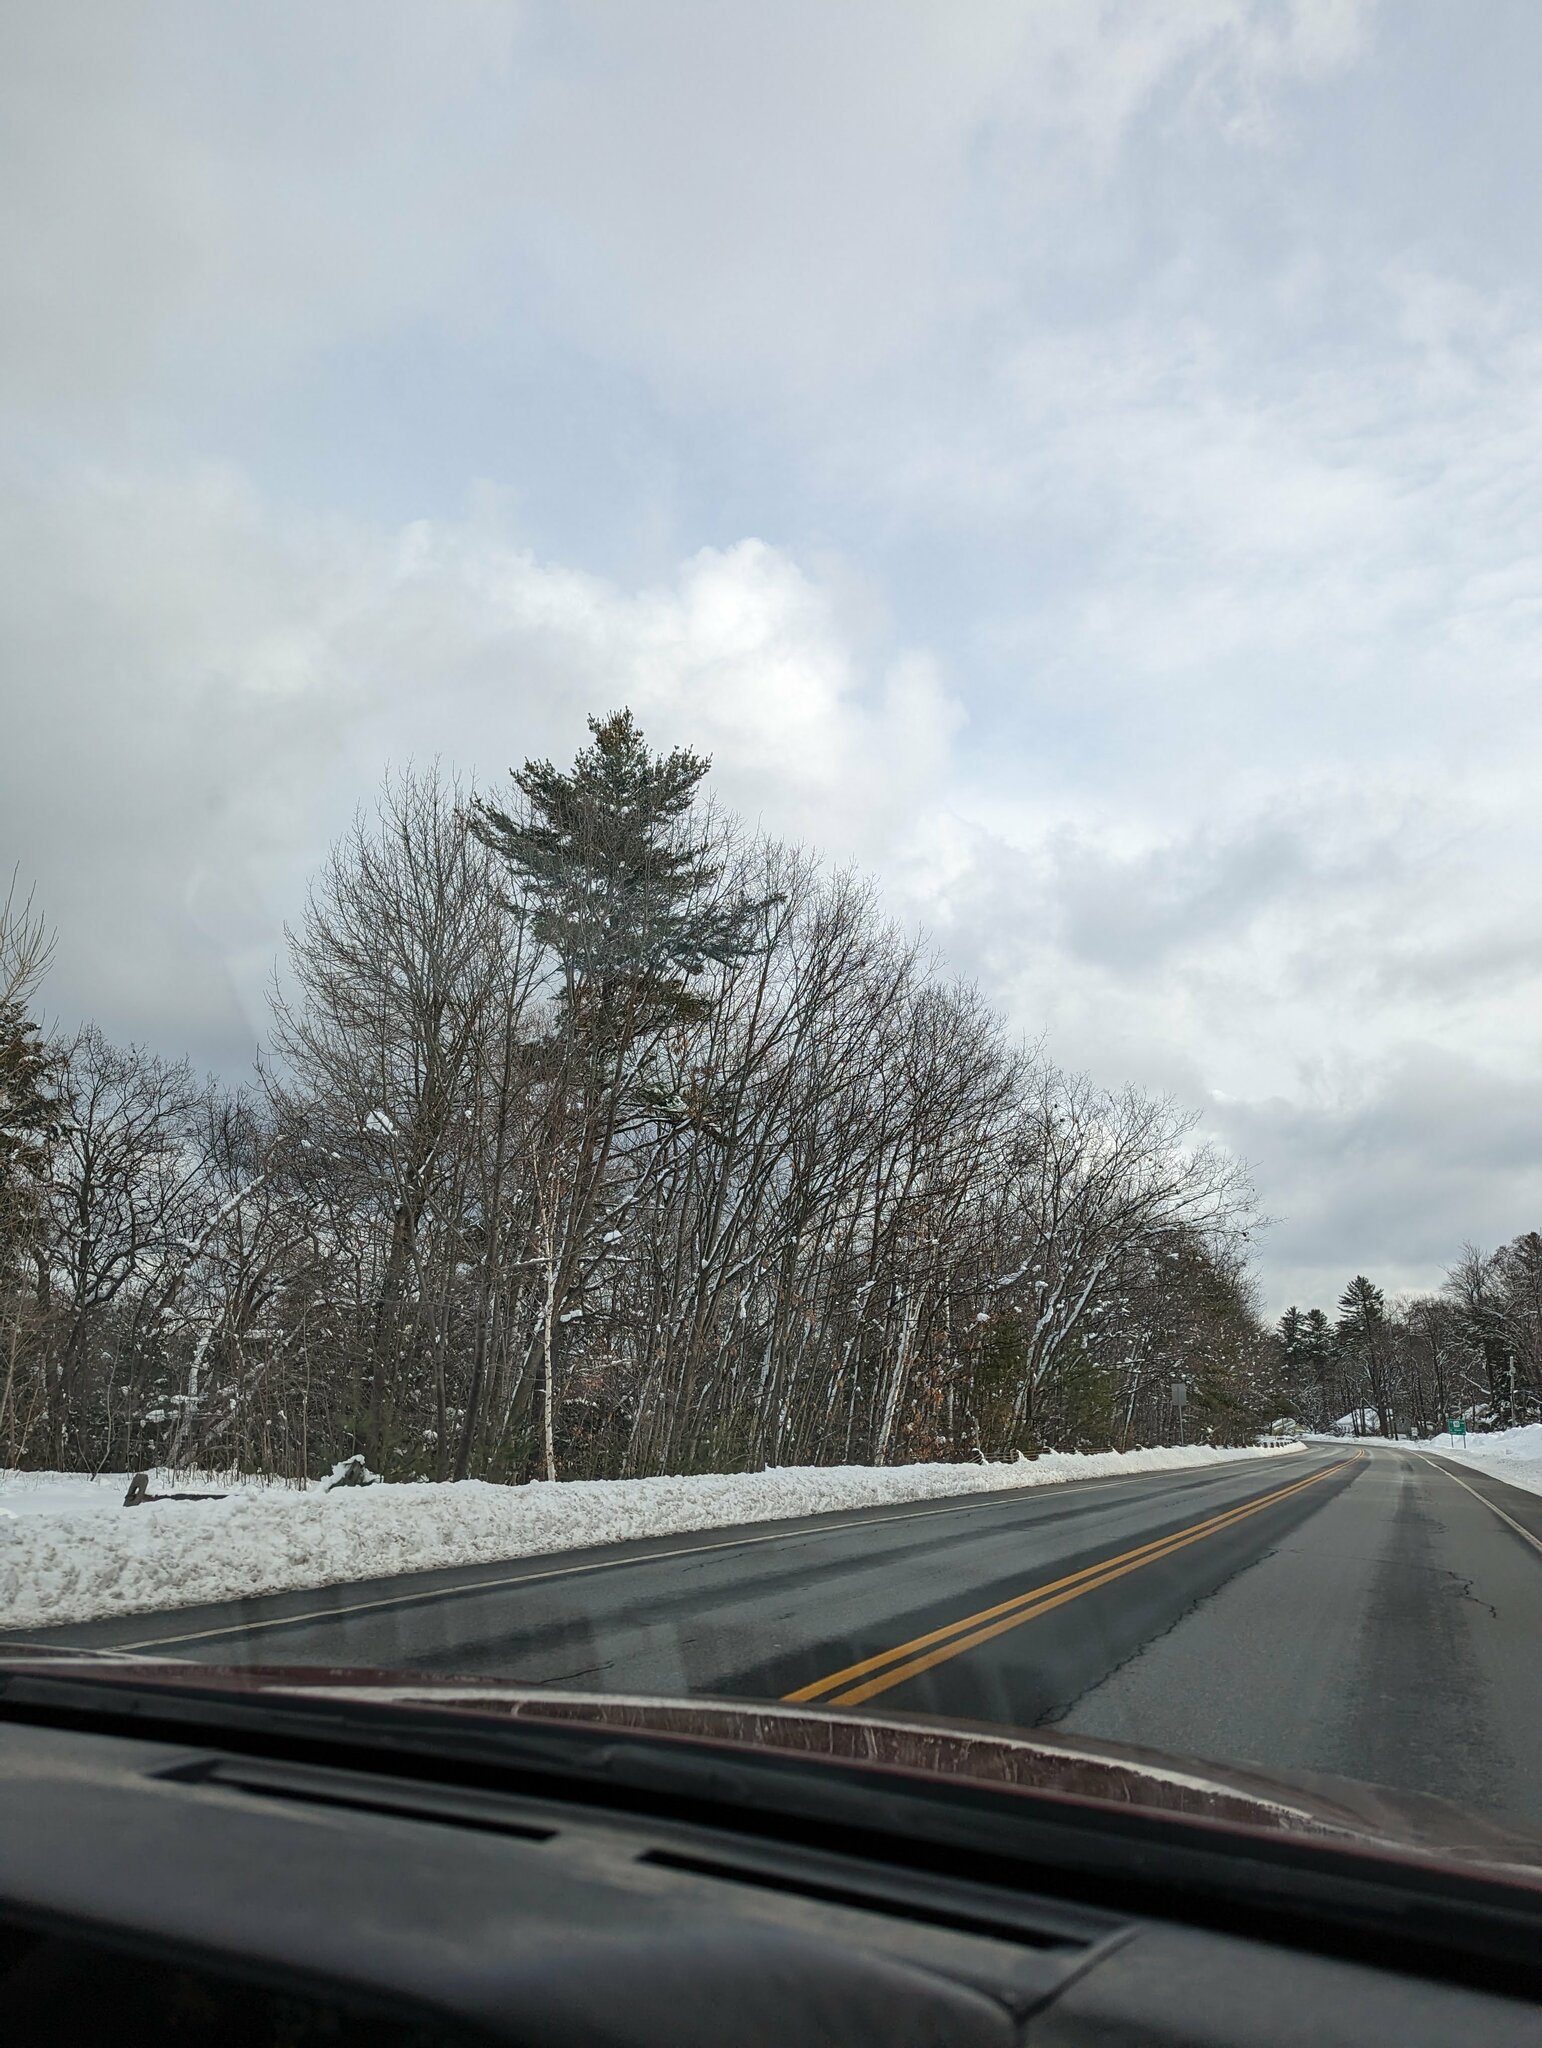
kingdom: Plantae
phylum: Tracheophyta
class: Pinopsida
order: Pinales
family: Pinaceae
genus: Pinus
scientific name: Pinus strobus
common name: Weymouth pine
